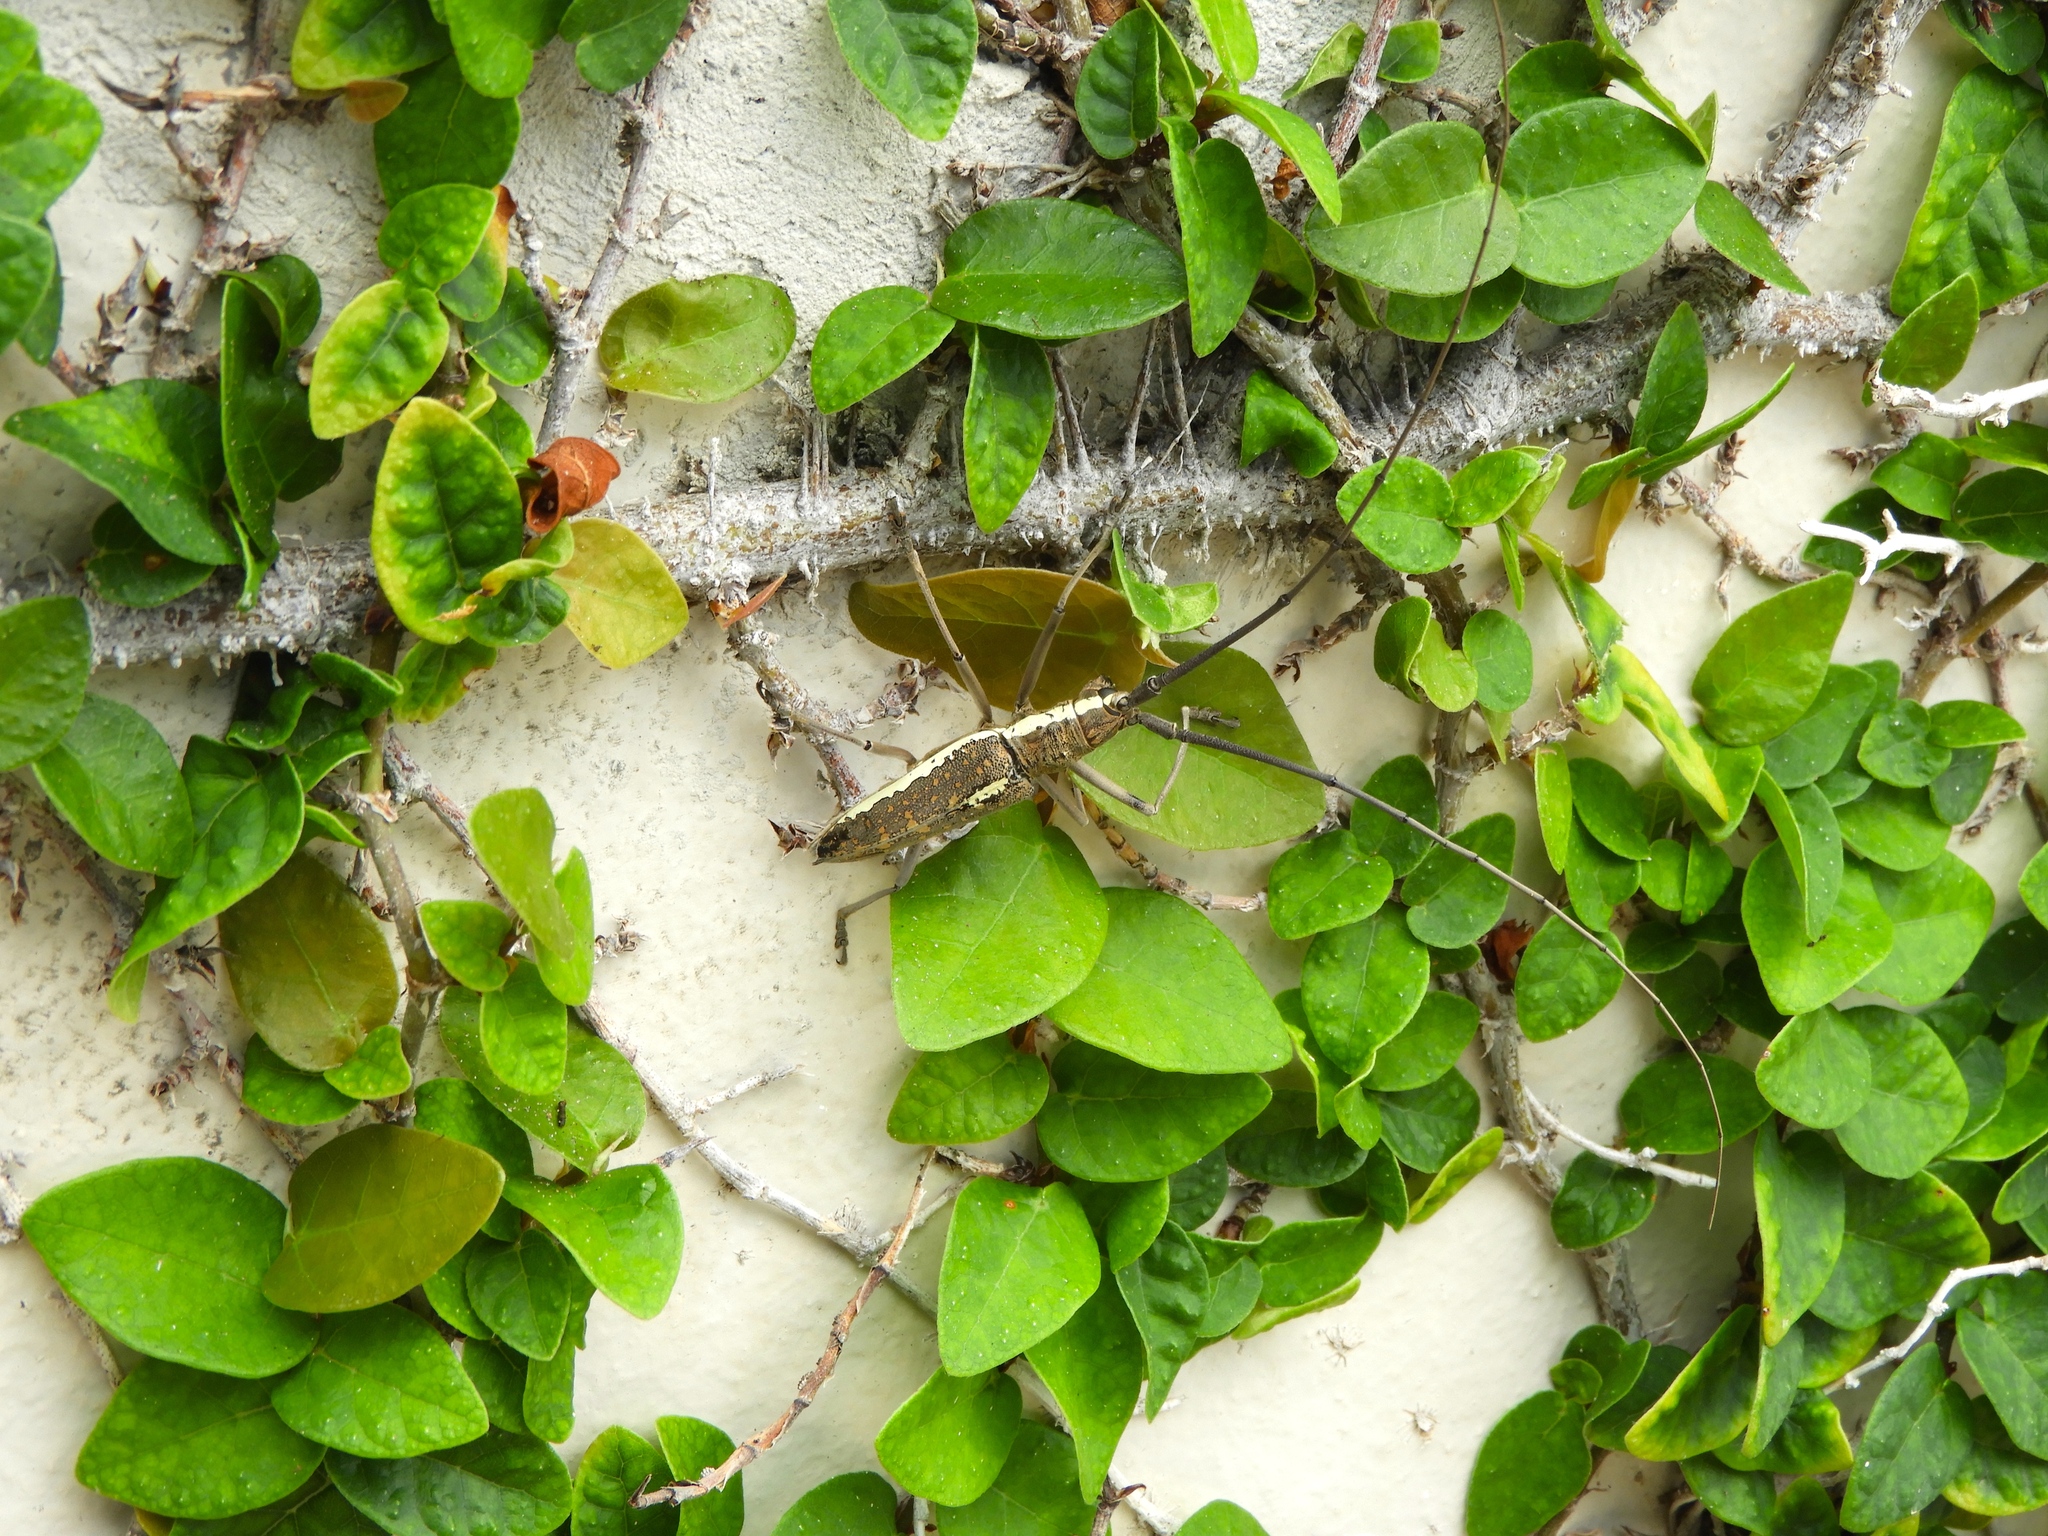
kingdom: Animalia
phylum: Arthropoda
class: Insecta
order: Coleoptera
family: Cerambycidae
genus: Neoptychodes
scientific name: Neoptychodes trilineatus
